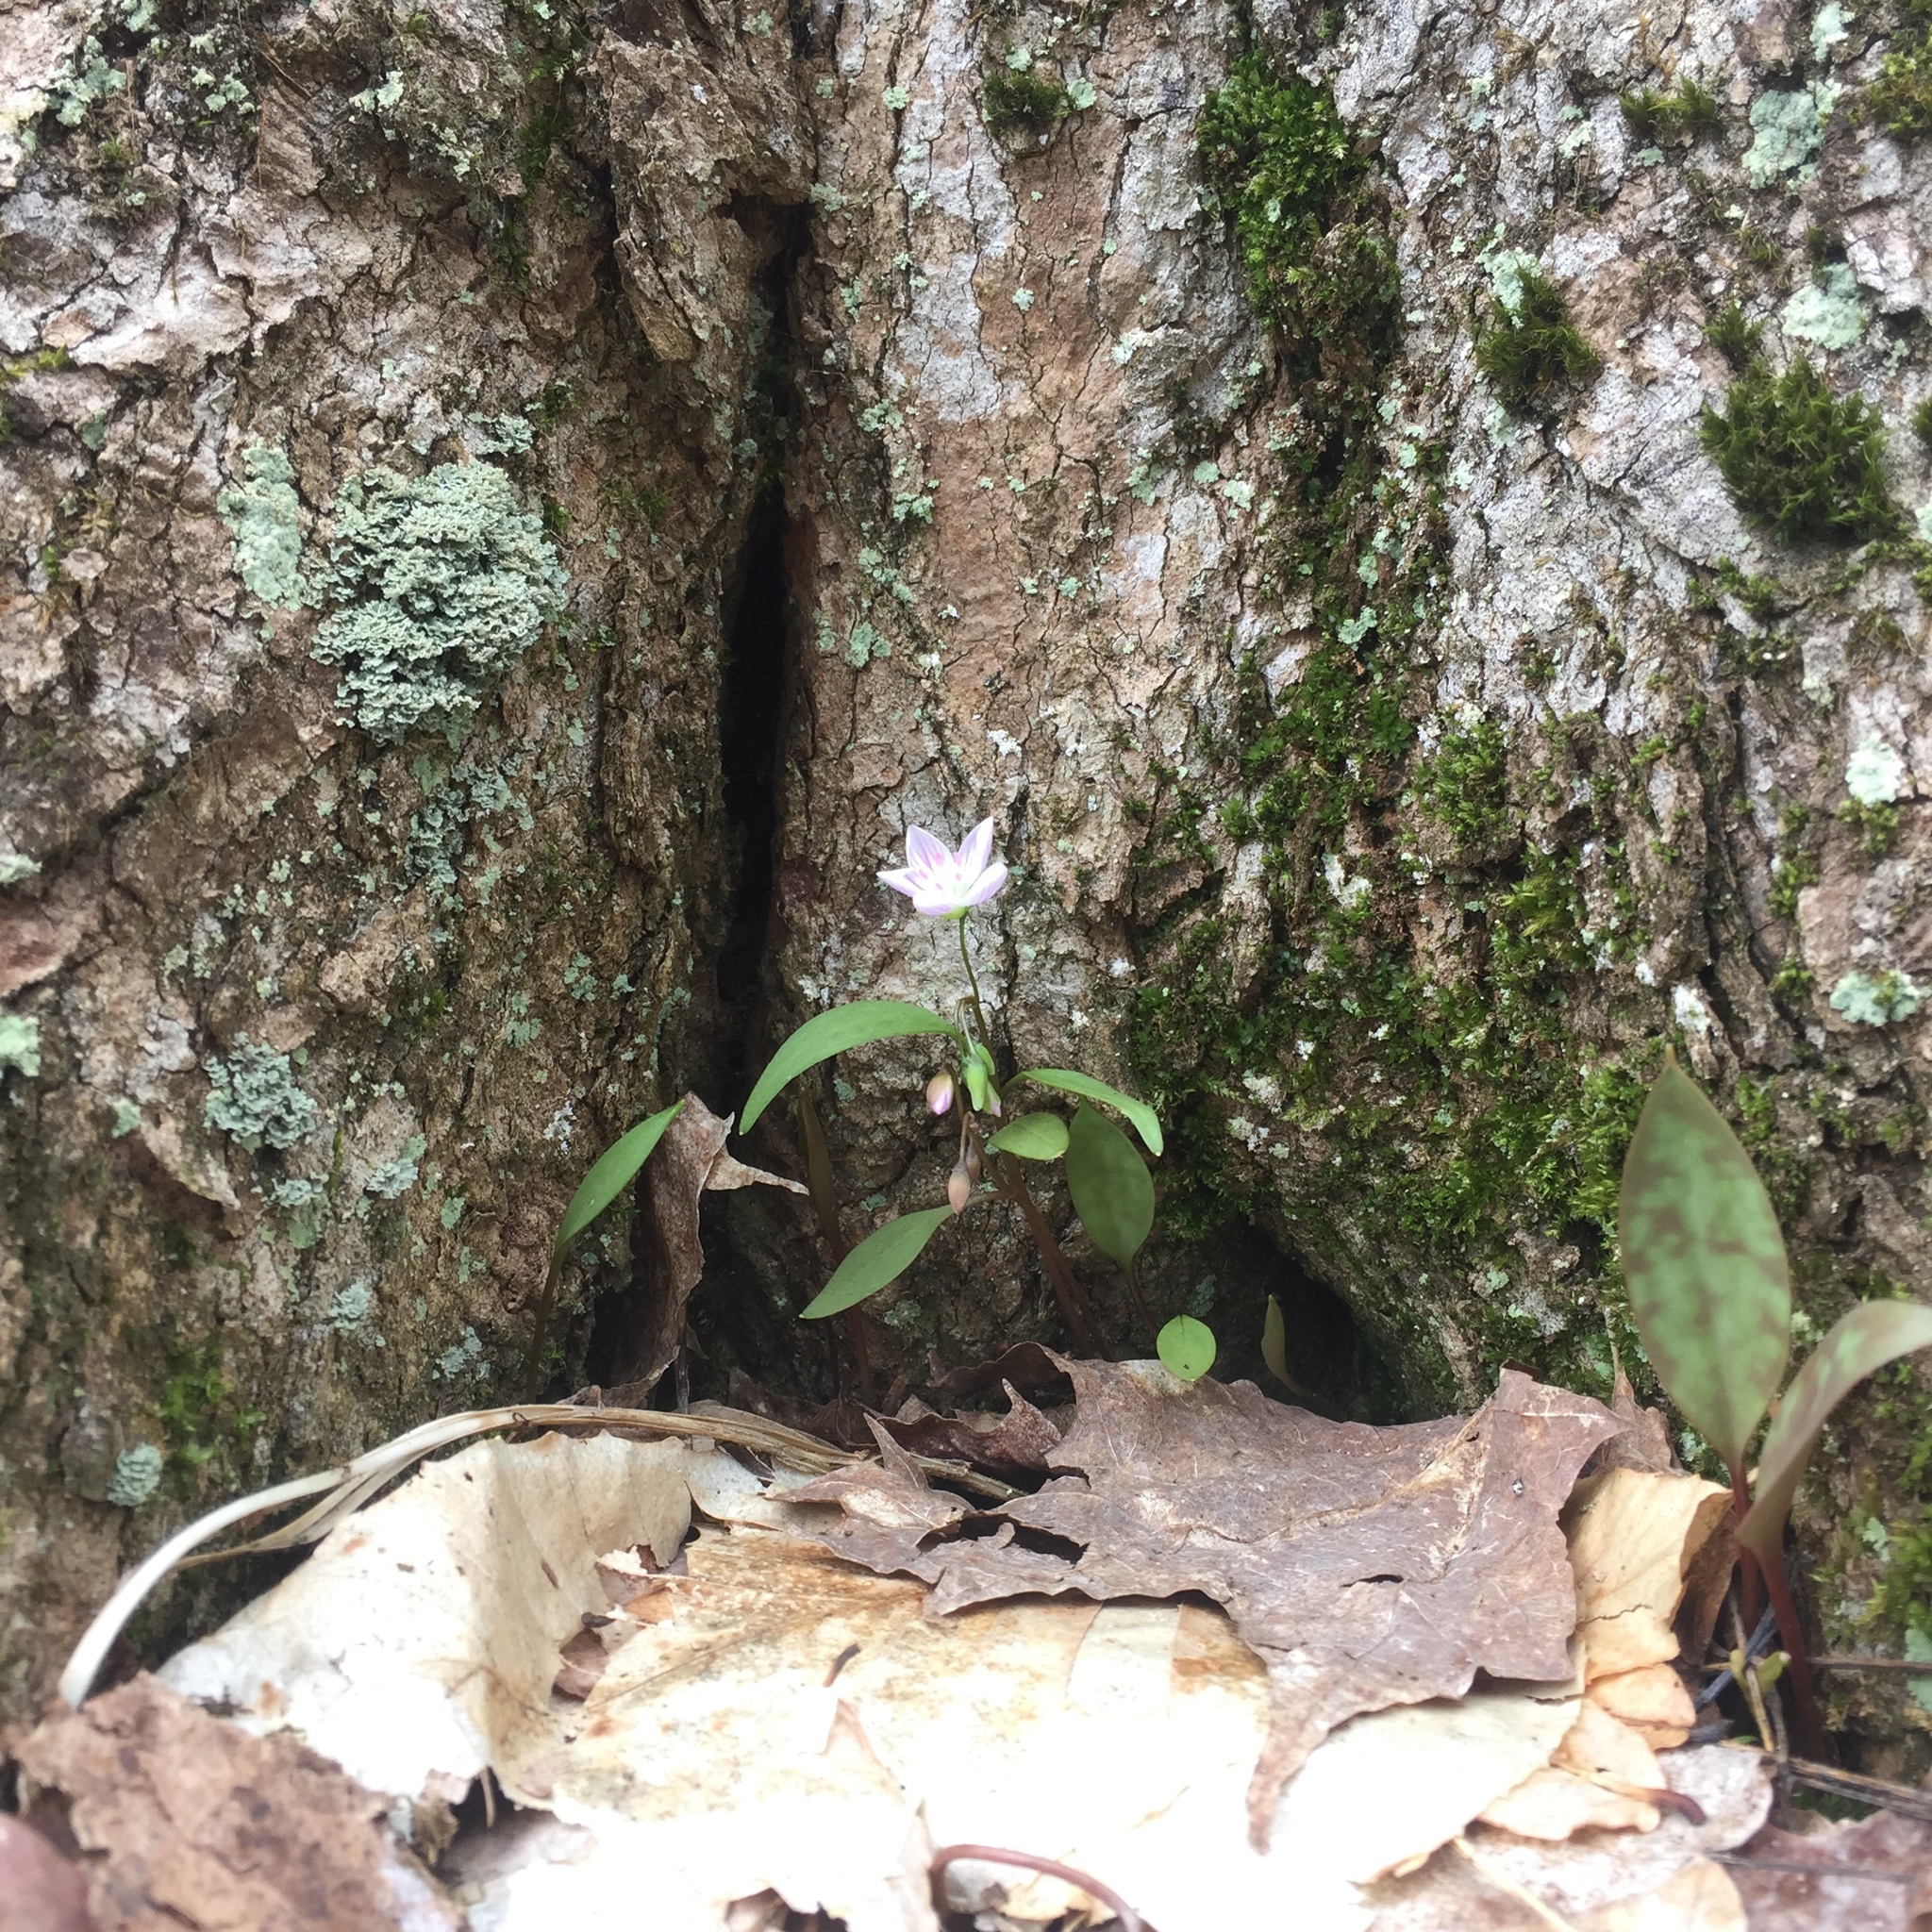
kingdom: Plantae
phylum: Tracheophyta
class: Magnoliopsida
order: Caryophyllales
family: Montiaceae
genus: Claytonia
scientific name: Claytonia caroliniana
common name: Carolina spring beauty
